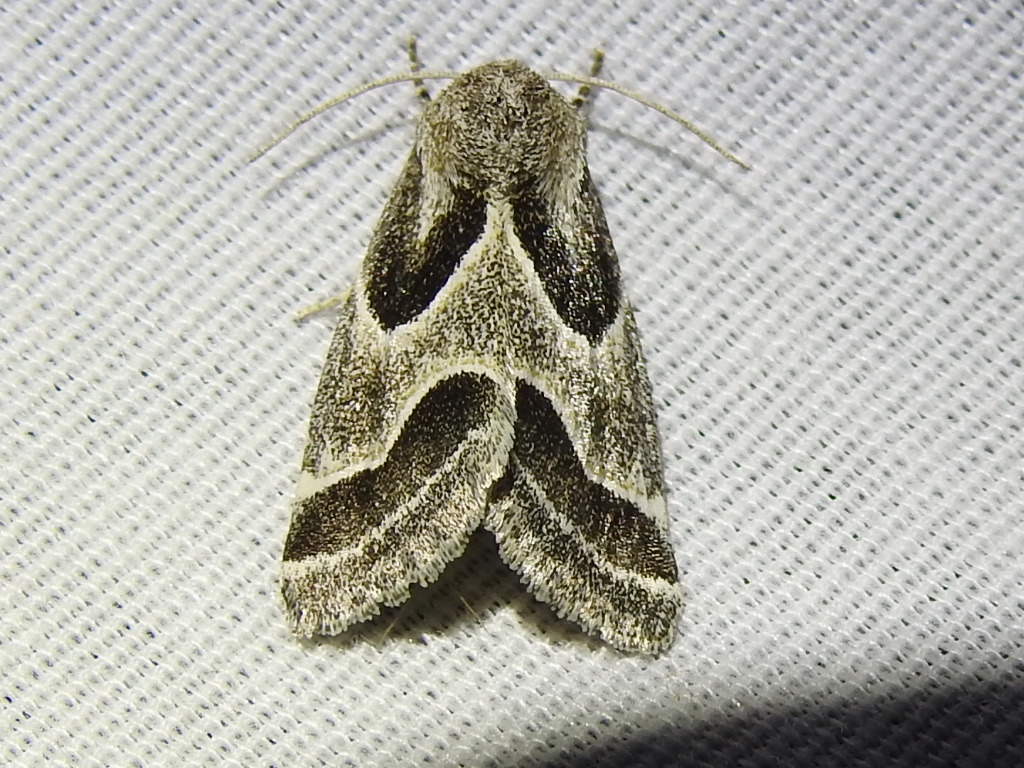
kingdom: Animalia
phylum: Arthropoda
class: Insecta
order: Lepidoptera
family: Noctuidae
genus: Schinia
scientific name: Schinia rivulosa
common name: Scarce meal-moth
